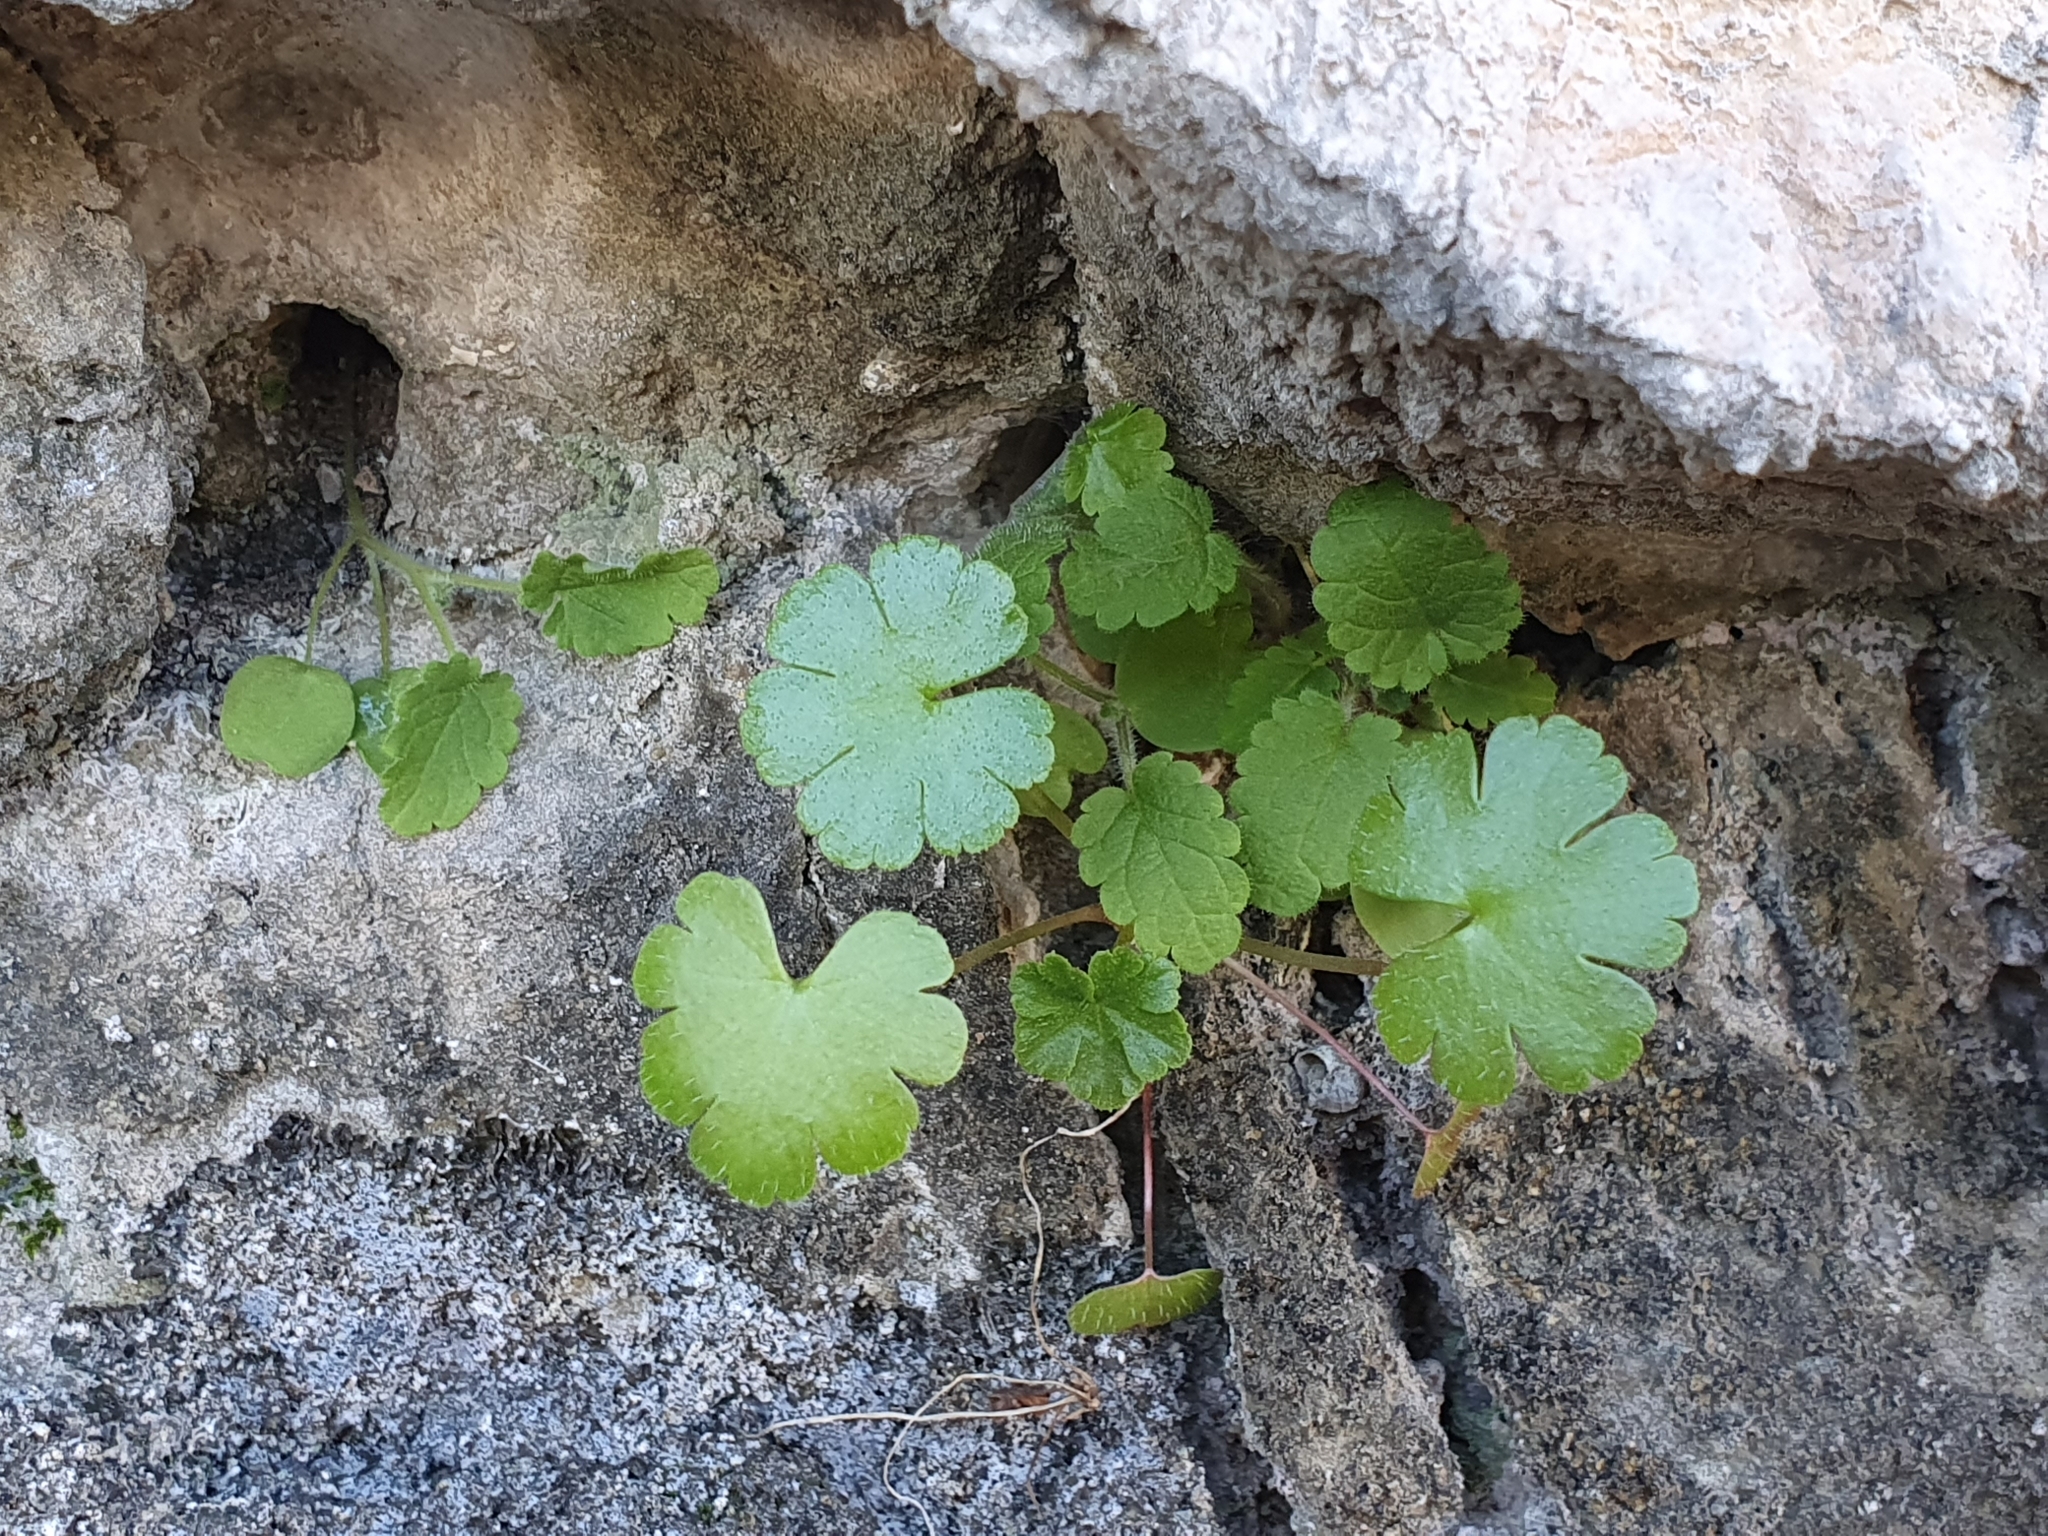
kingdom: Plantae
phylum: Tracheophyta
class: Magnoliopsida
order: Geraniales
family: Geraniaceae
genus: Geranium
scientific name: Geranium lucidum
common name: Shining crane's-bill
